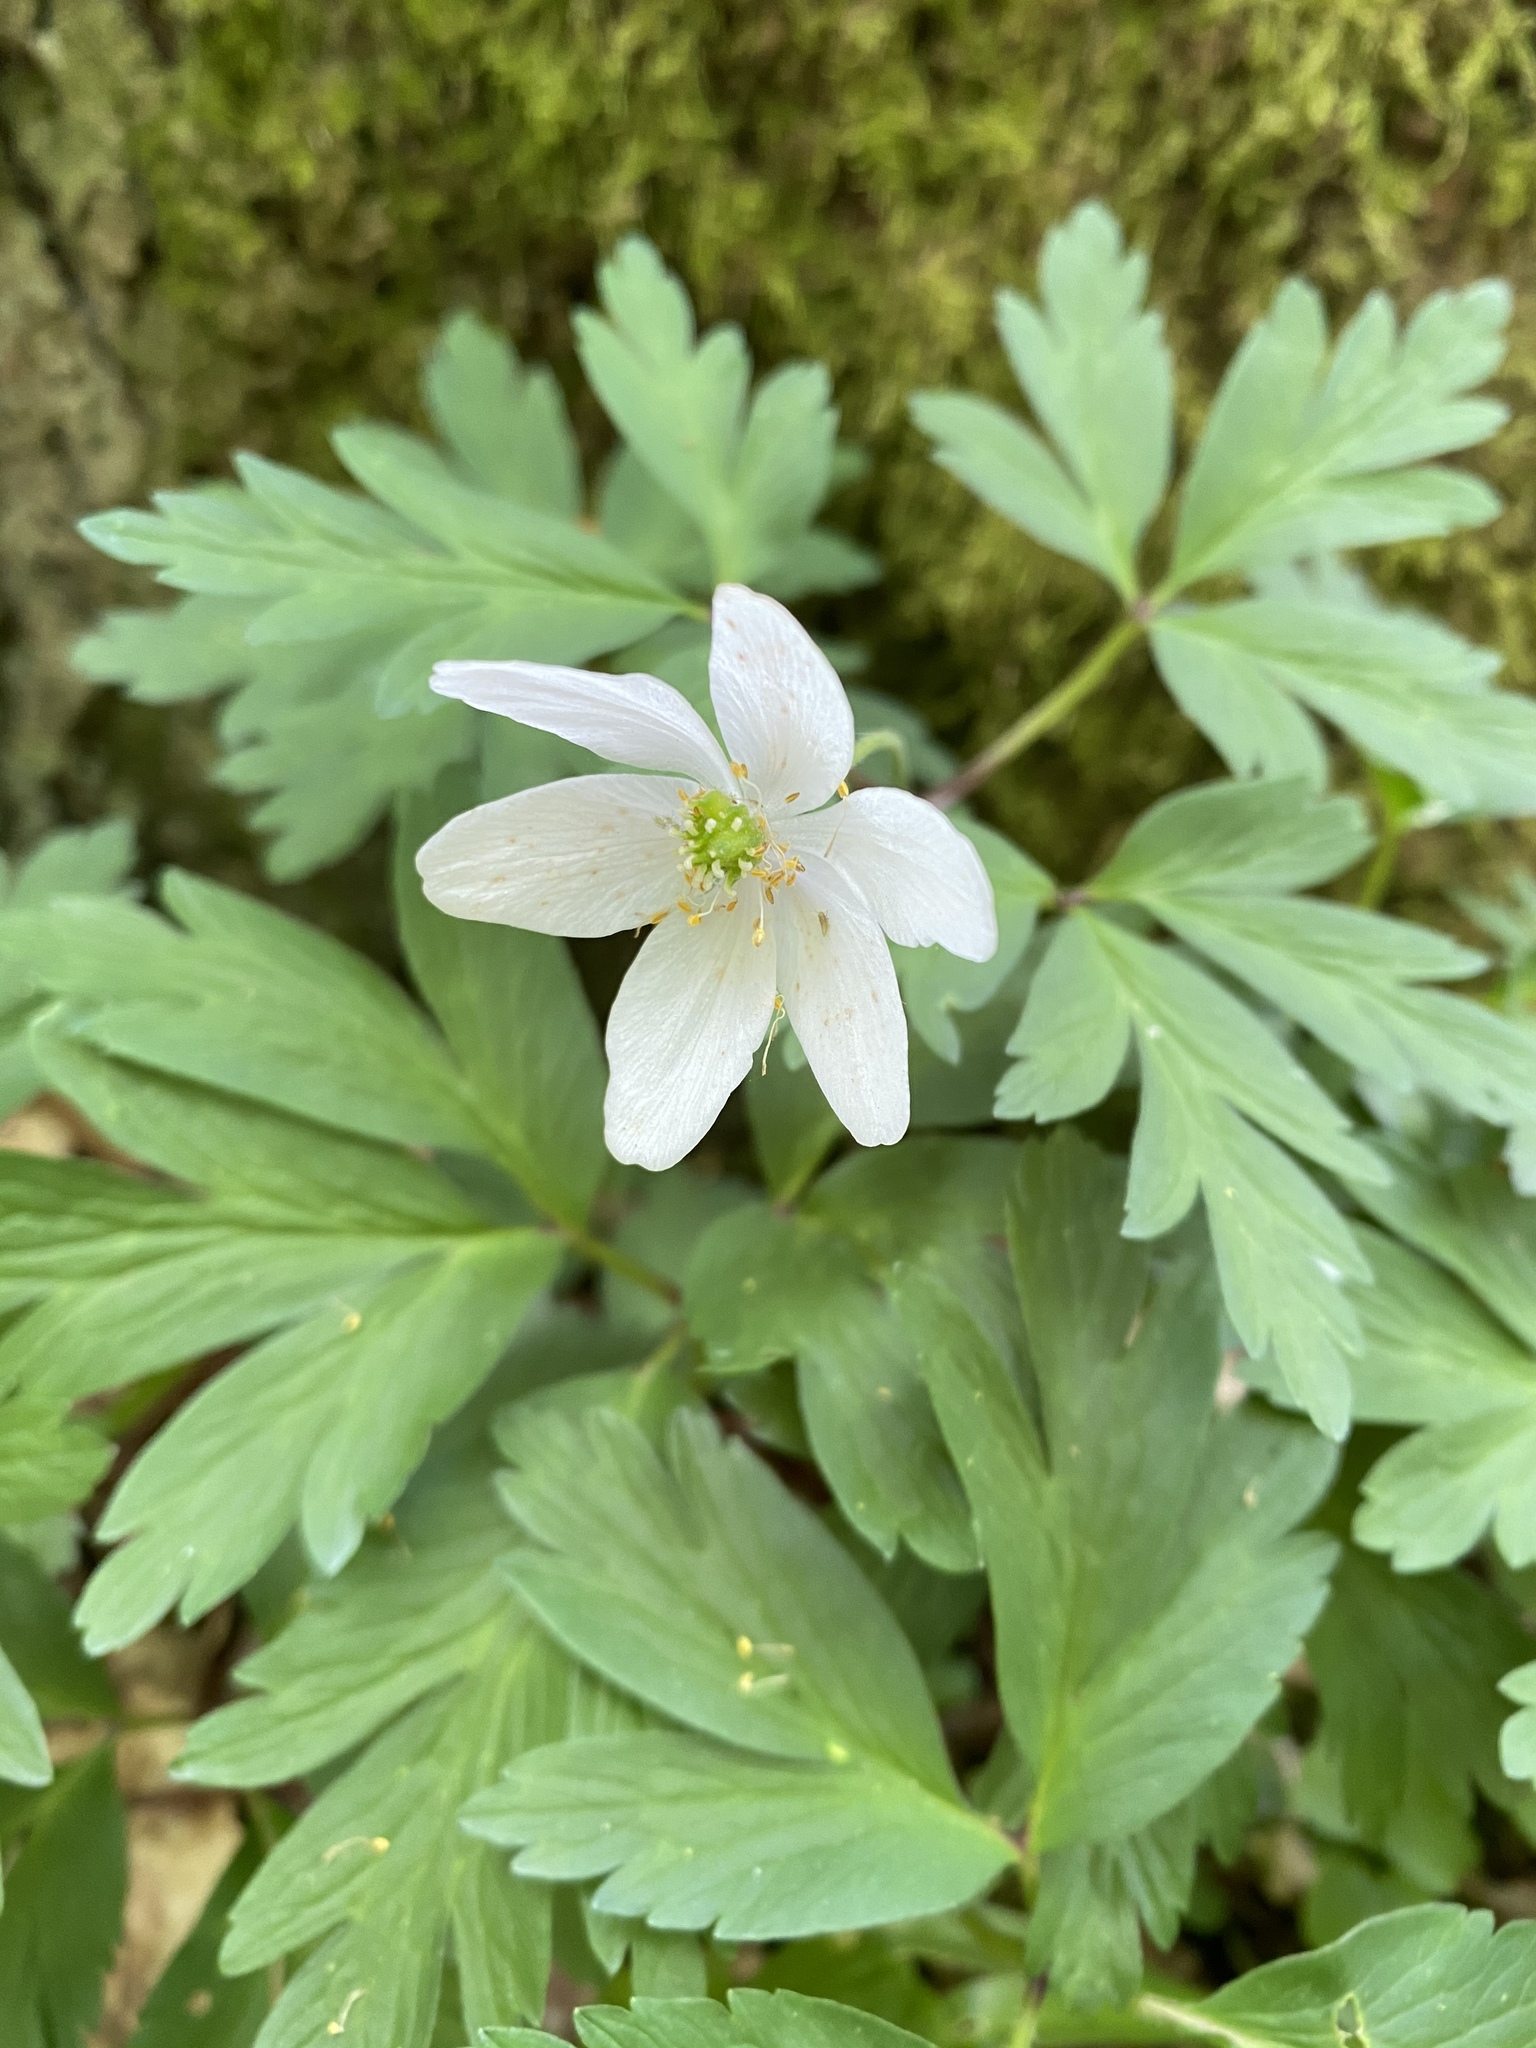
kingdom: Plantae
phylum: Tracheophyta
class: Magnoliopsida
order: Ranunculales
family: Ranunculaceae
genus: Anemone
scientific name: Anemone nemorosa
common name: Wood anemone
